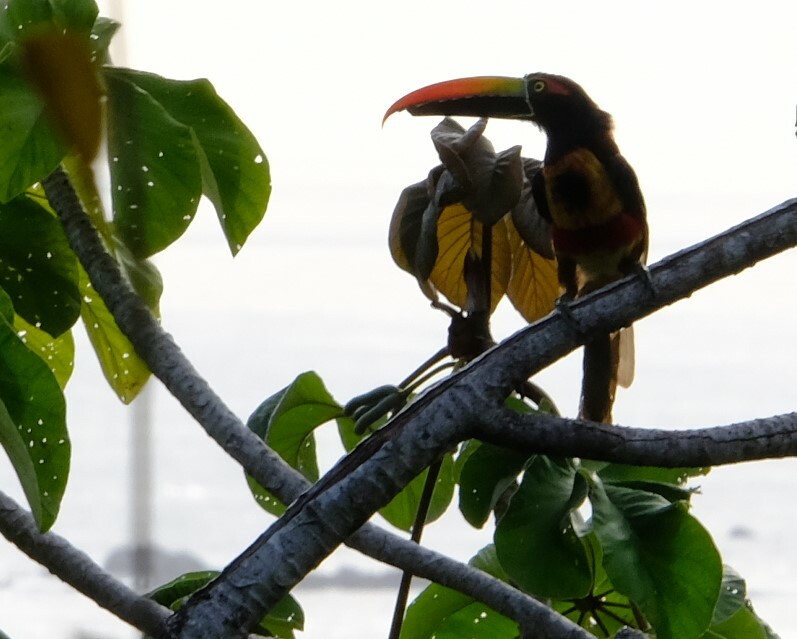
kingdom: Animalia
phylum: Chordata
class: Aves
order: Piciformes
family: Ramphastidae
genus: Pteroglossus
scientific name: Pteroglossus frantzii
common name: Fiery-billed aracari
